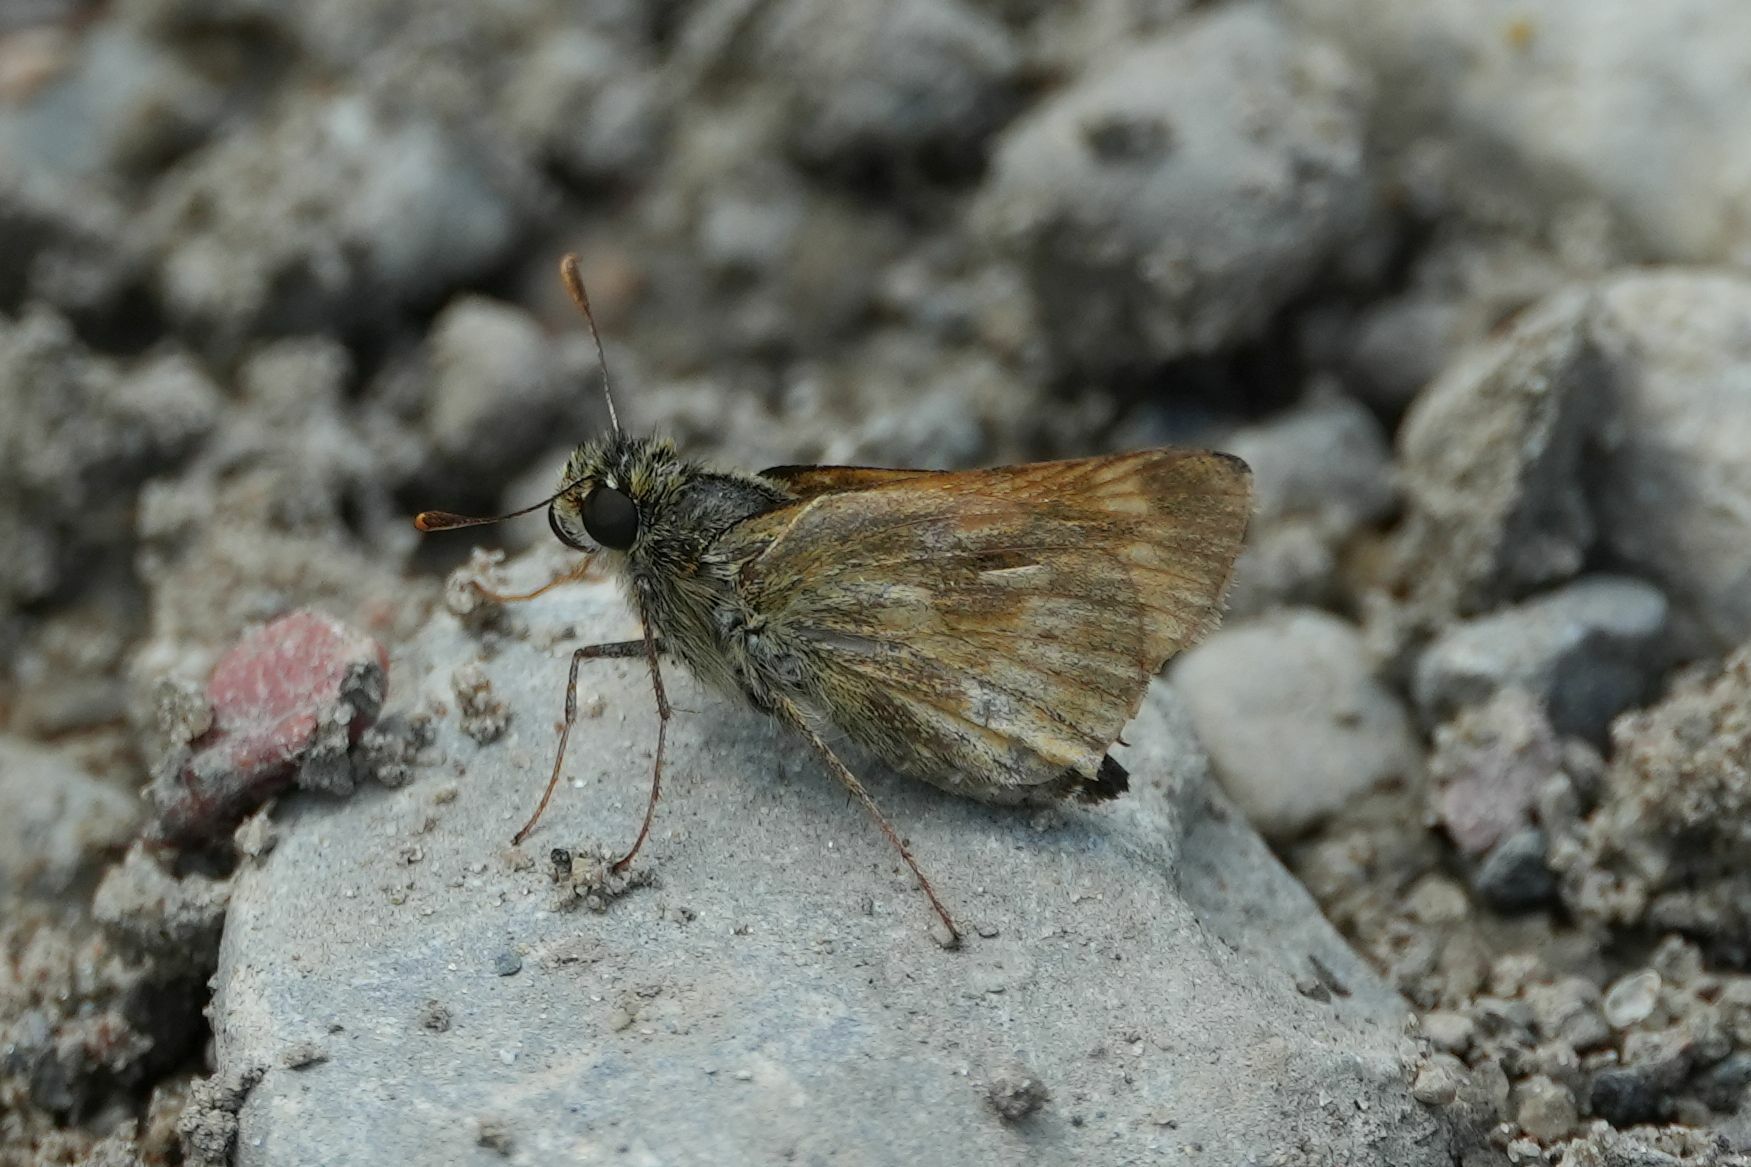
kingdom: Animalia
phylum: Arthropoda
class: Insecta
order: Lepidoptera
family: Hesperiidae
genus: Polites
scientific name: Polites mystic
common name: Long dash
